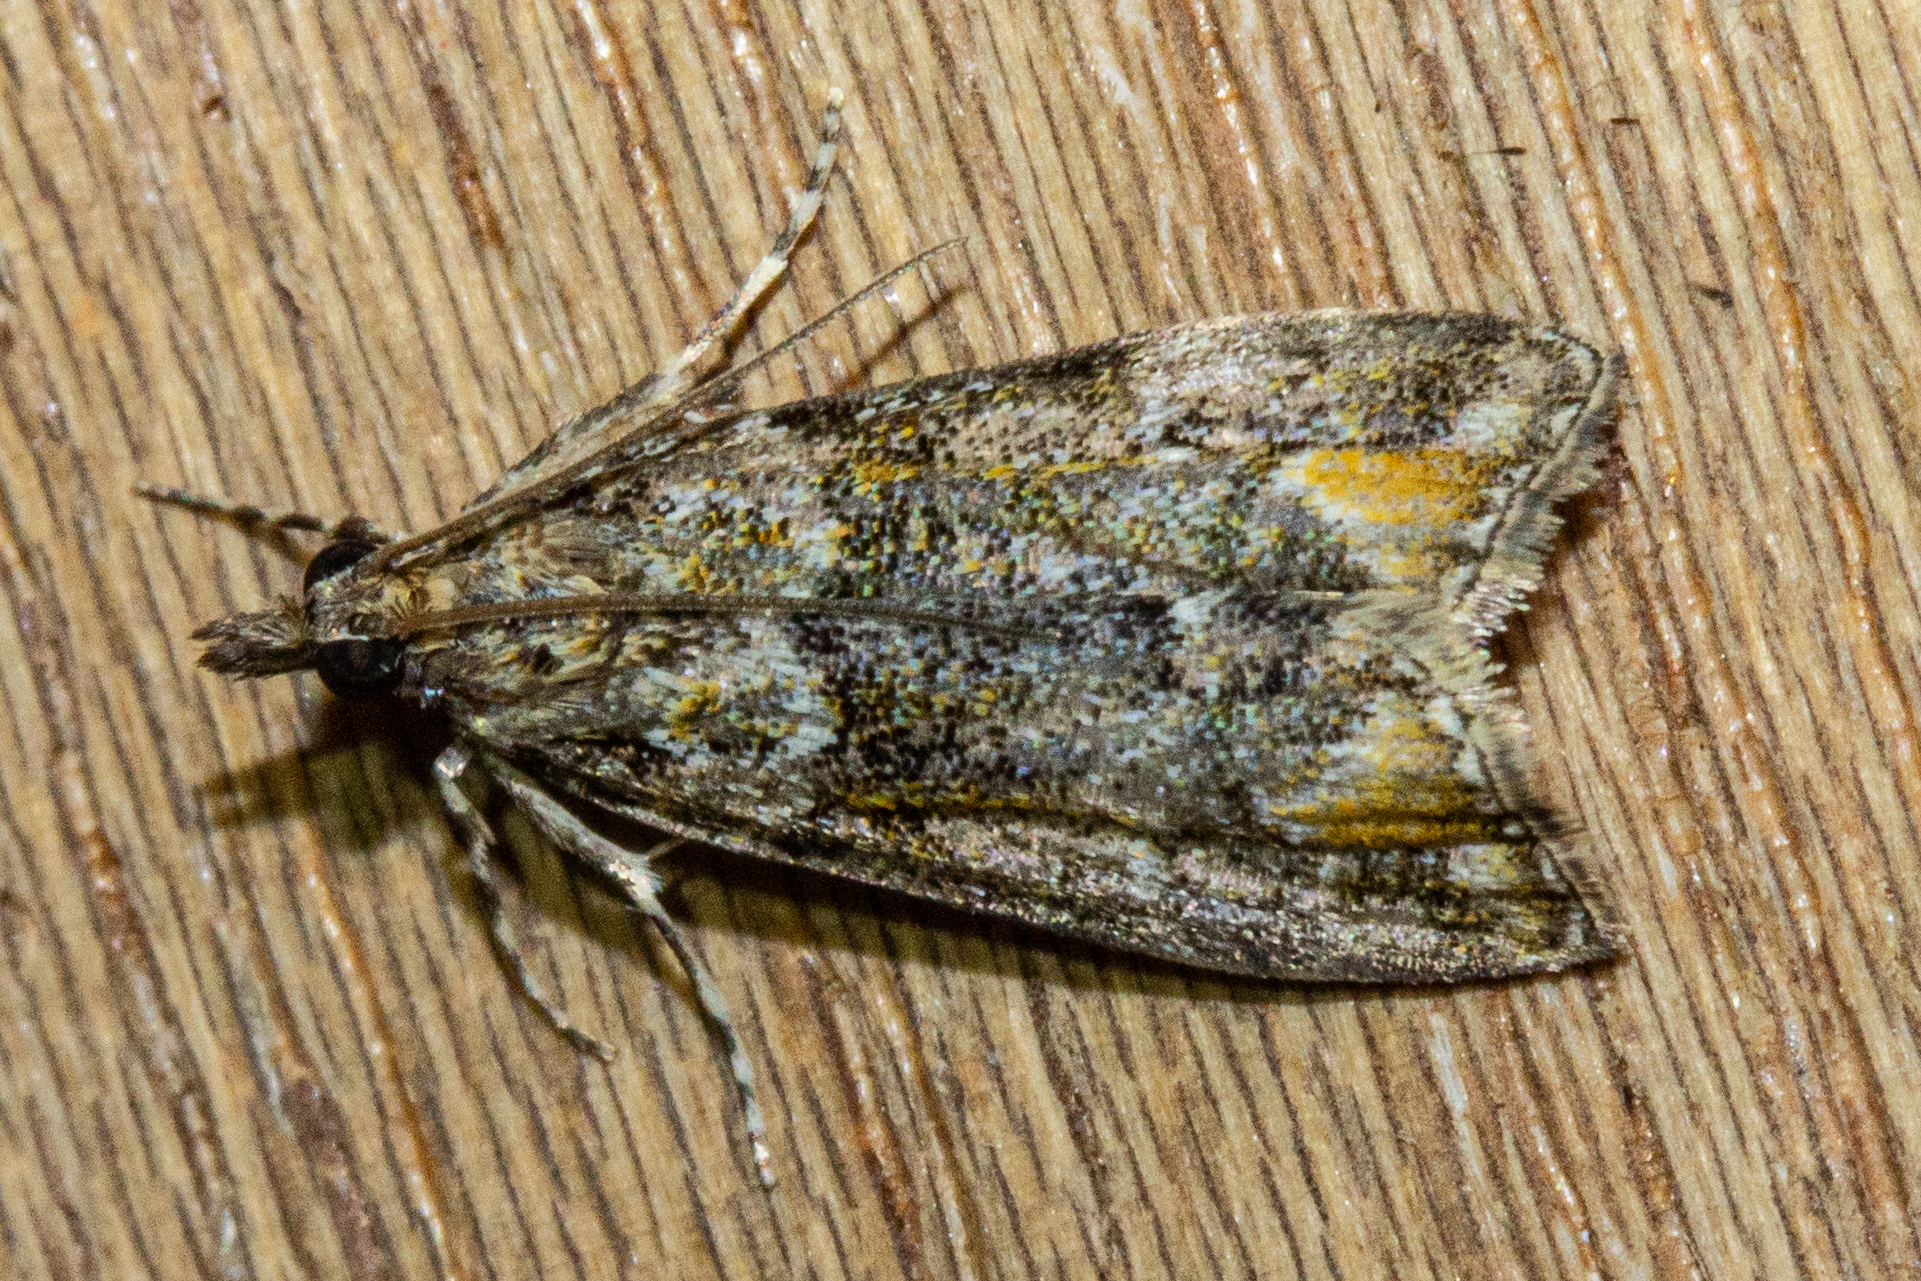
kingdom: Animalia
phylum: Arthropoda
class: Insecta
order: Lepidoptera
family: Crambidae
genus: Eudonia
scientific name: Eudonia minualis
